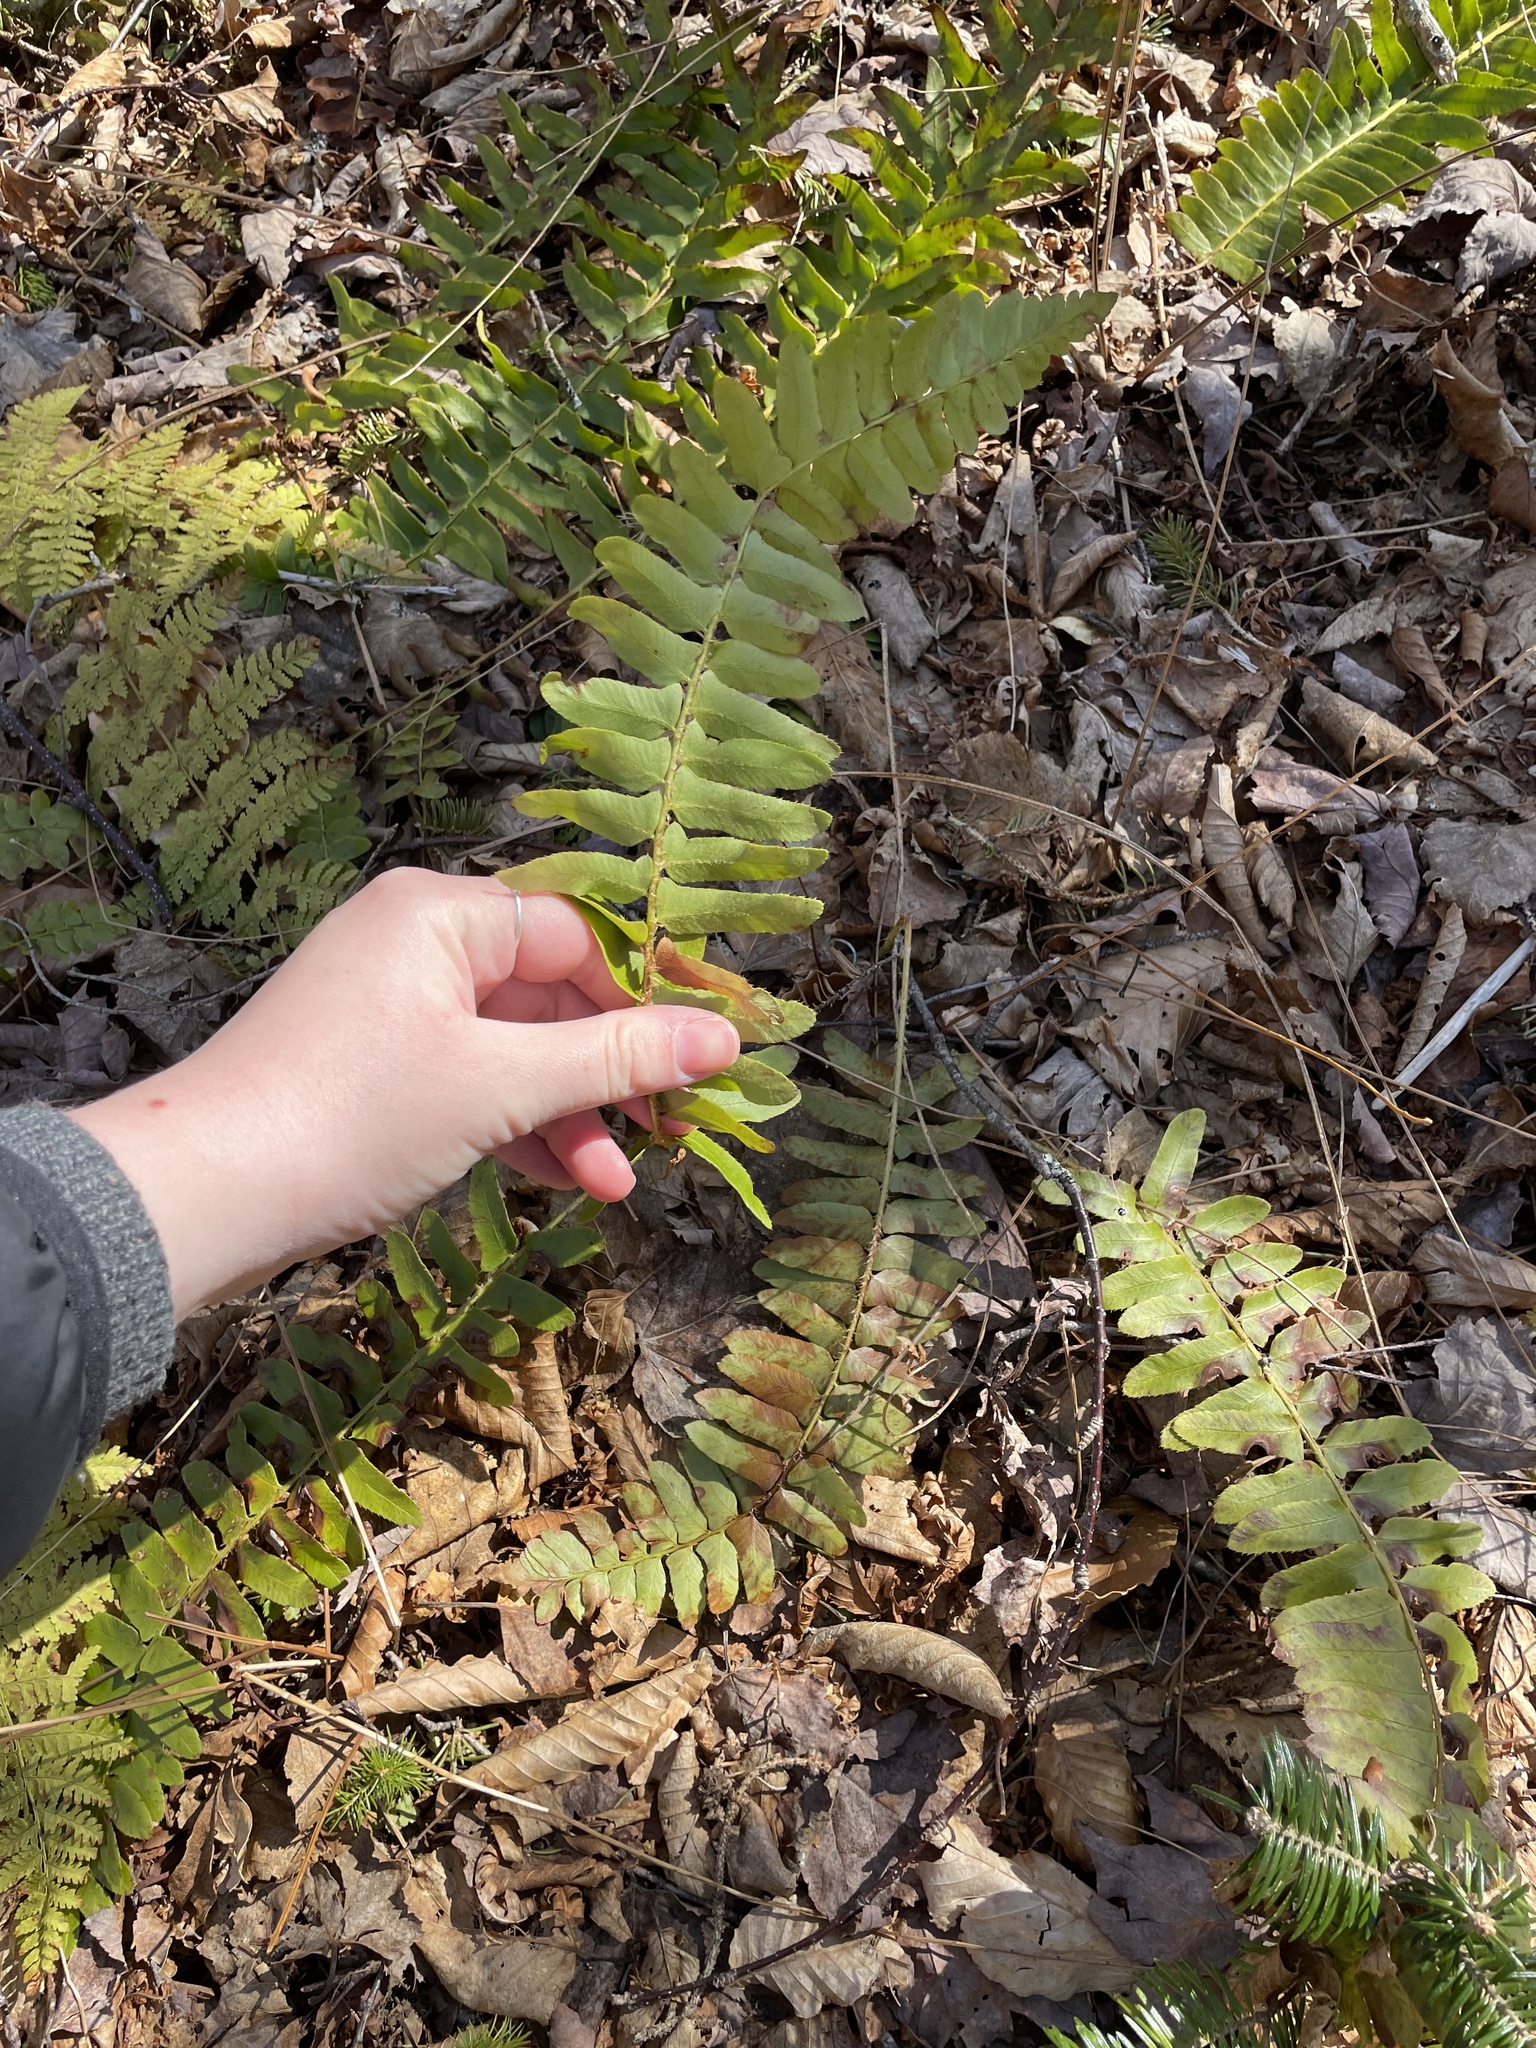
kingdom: Plantae
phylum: Tracheophyta
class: Polypodiopsida
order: Polypodiales
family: Dryopteridaceae
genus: Polystichum
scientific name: Polystichum acrostichoides
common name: Christmas fern
